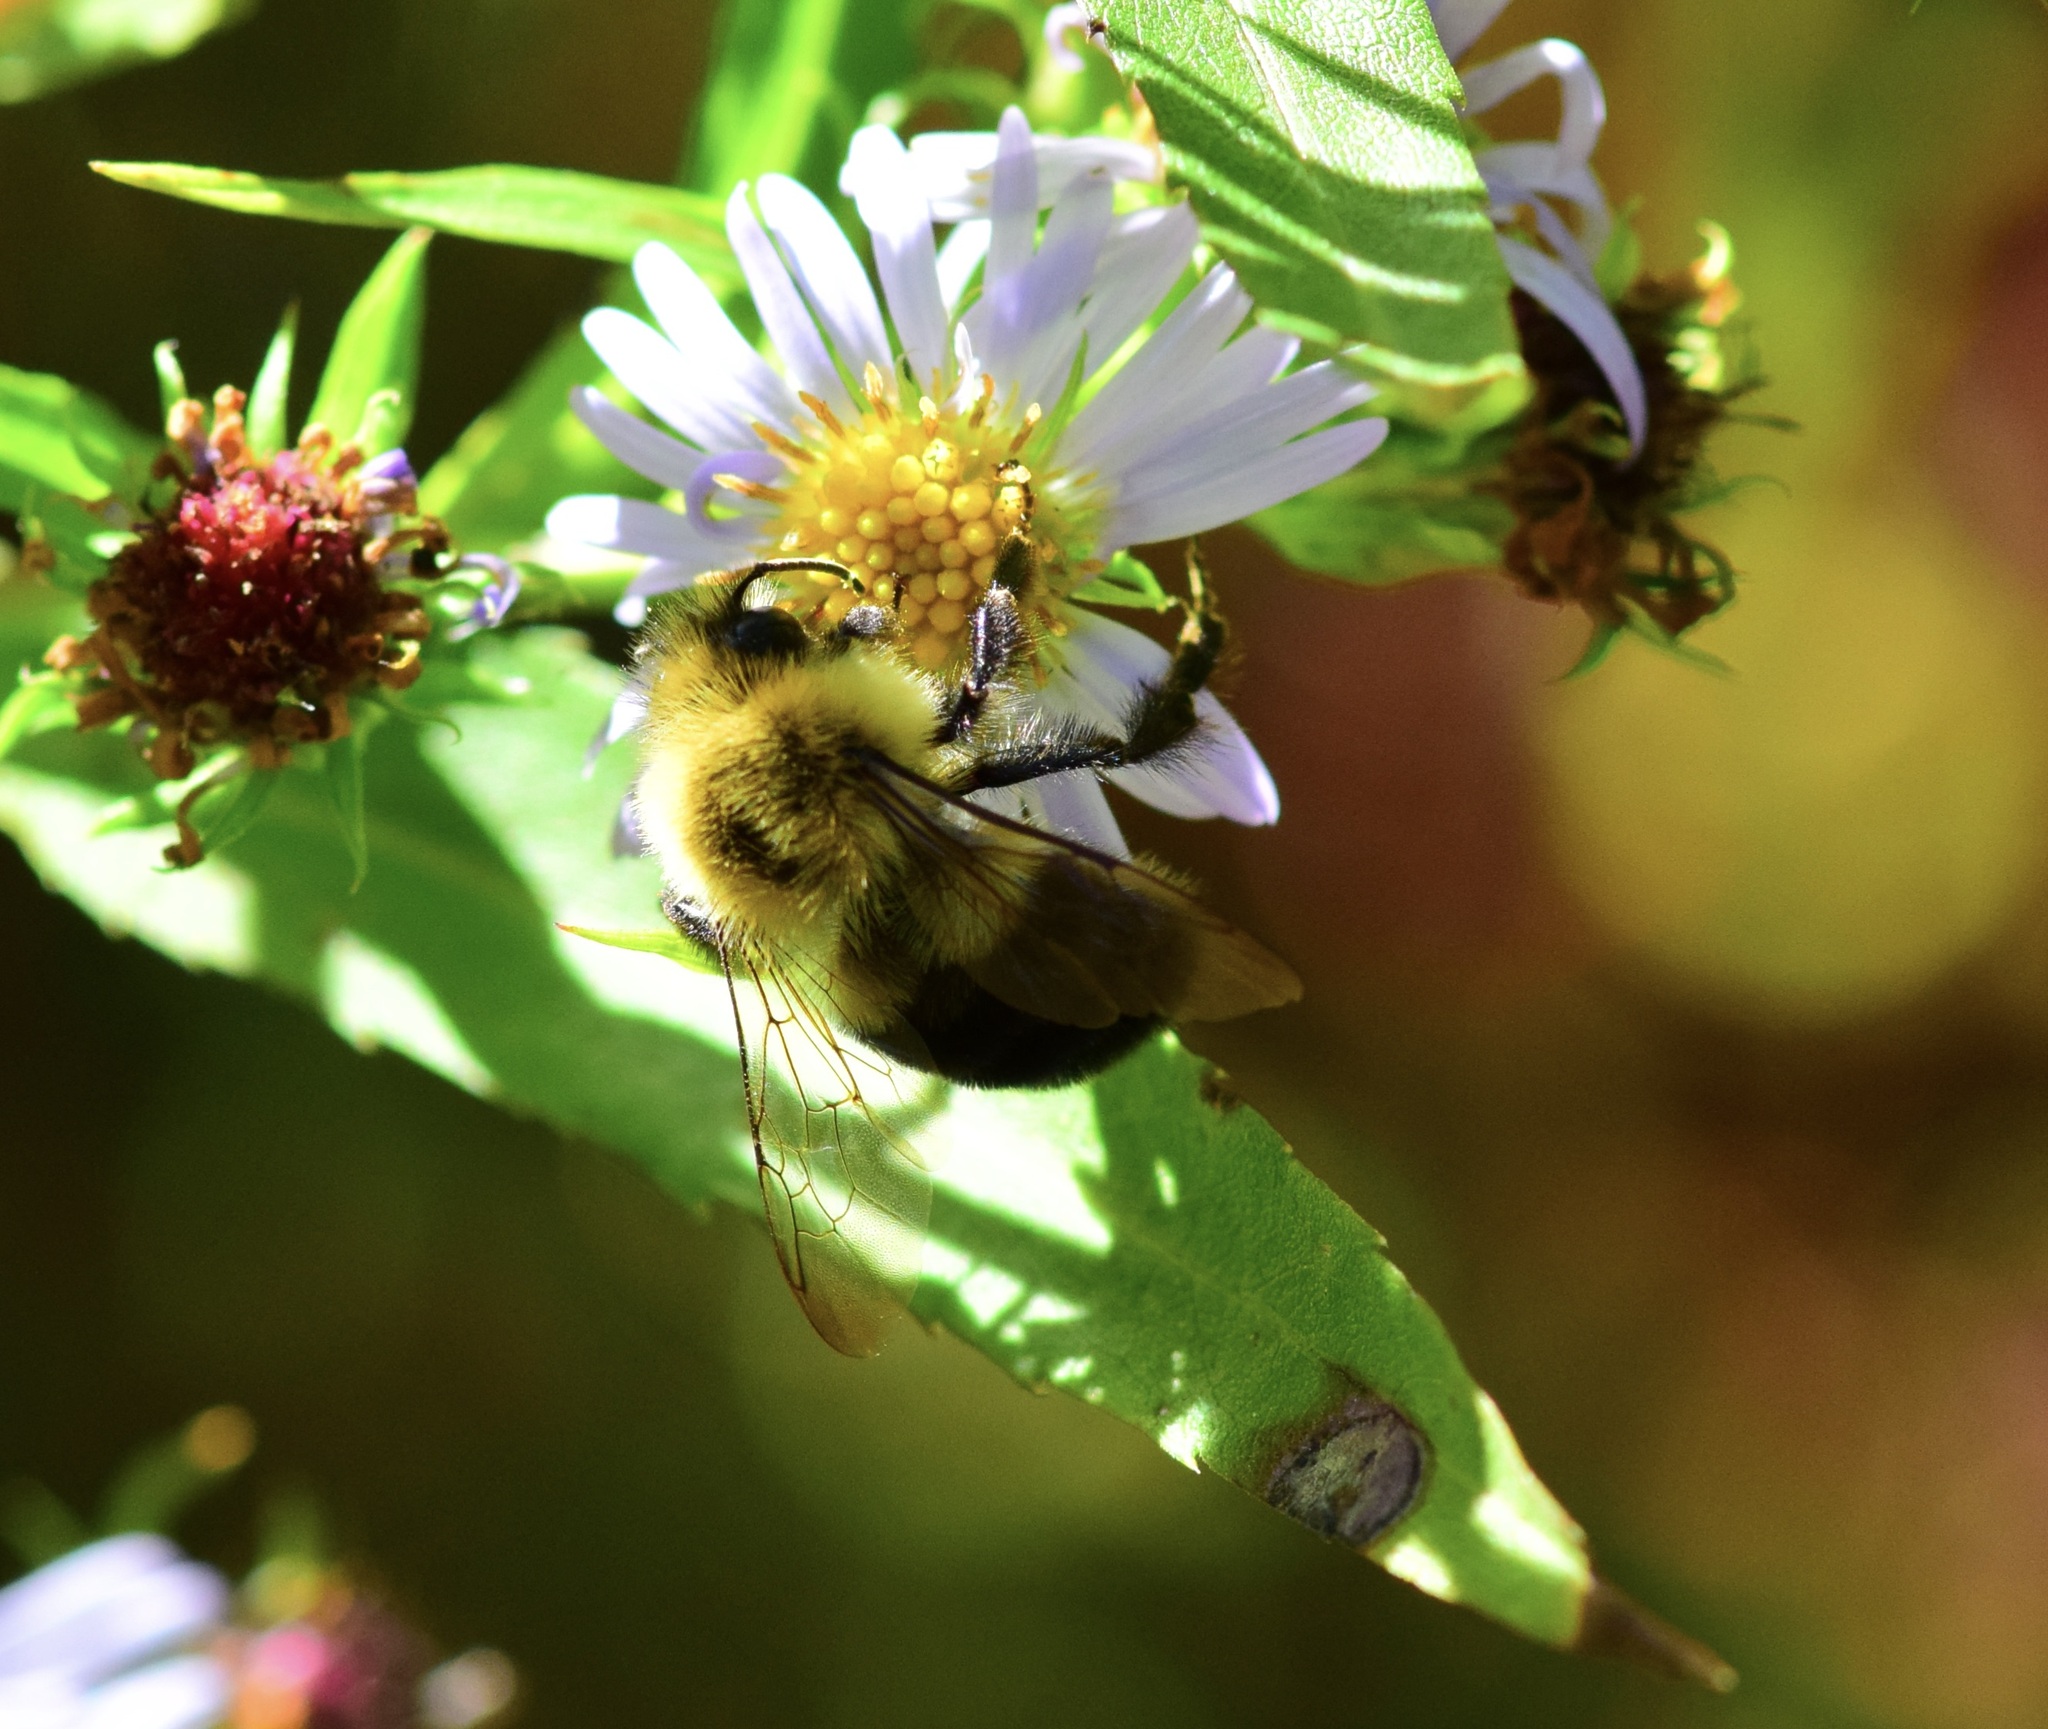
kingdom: Animalia
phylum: Arthropoda
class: Insecta
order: Hymenoptera
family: Apidae
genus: Bombus
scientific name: Bombus impatiens
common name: Common eastern bumble bee
